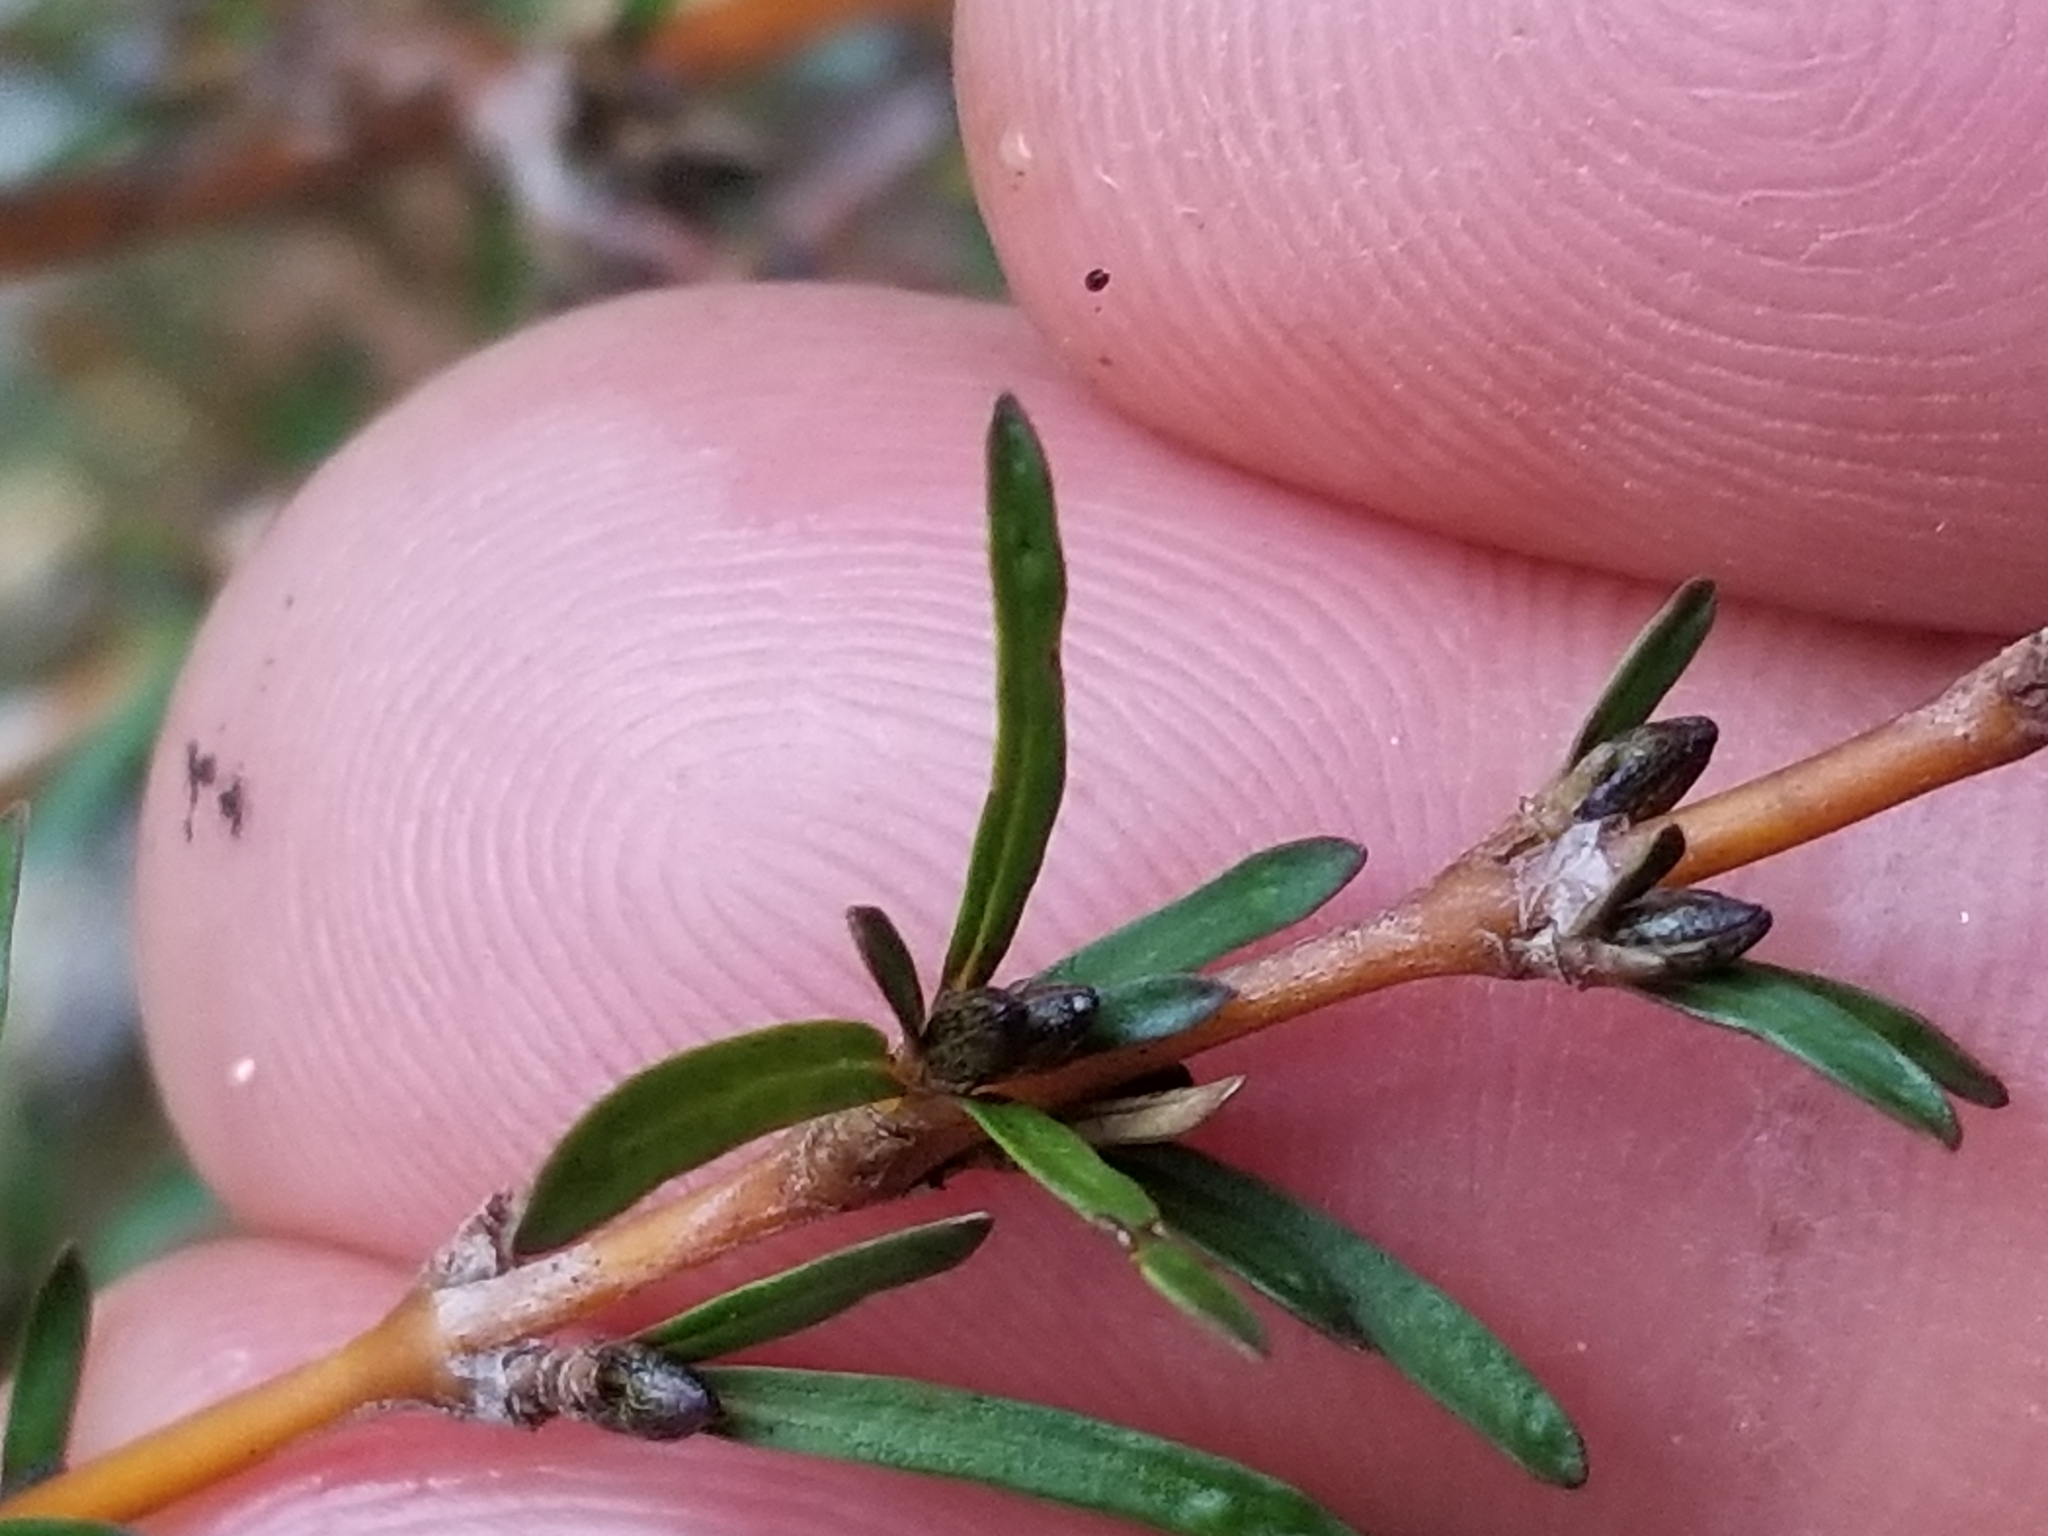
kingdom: Plantae
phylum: Tracheophyta
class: Magnoliopsida
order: Gentianales
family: Rubiaceae
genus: Coprosma
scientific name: Coprosma rugosa
